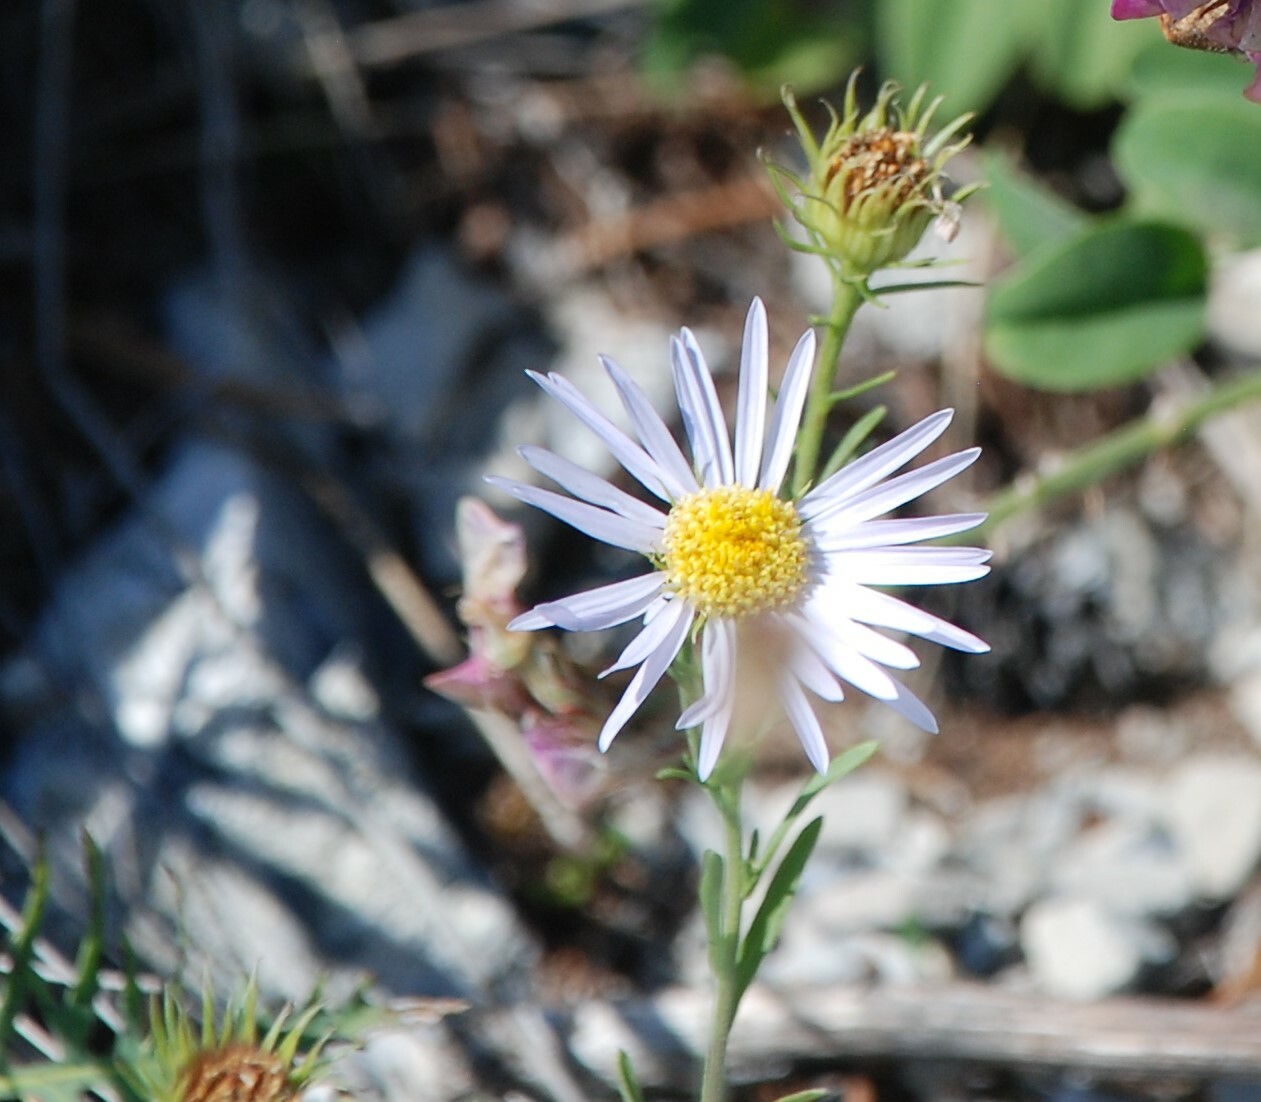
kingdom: Plantae
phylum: Tracheophyta
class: Magnoliopsida
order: Asterales
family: Asteraceae
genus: Aster
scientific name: Aster biennis
